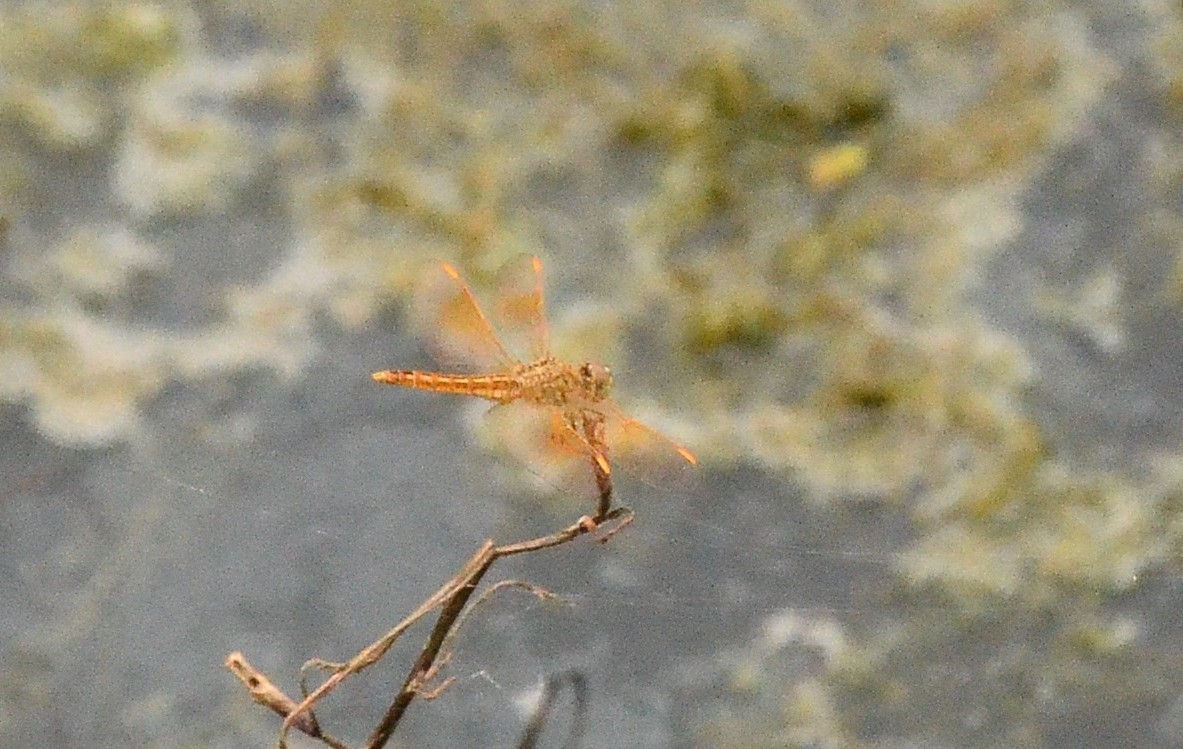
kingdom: Animalia
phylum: Arthropoda
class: Insecta
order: Odonata
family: Libellulidae
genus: Brachythemis
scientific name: Brachythemis contaminata
